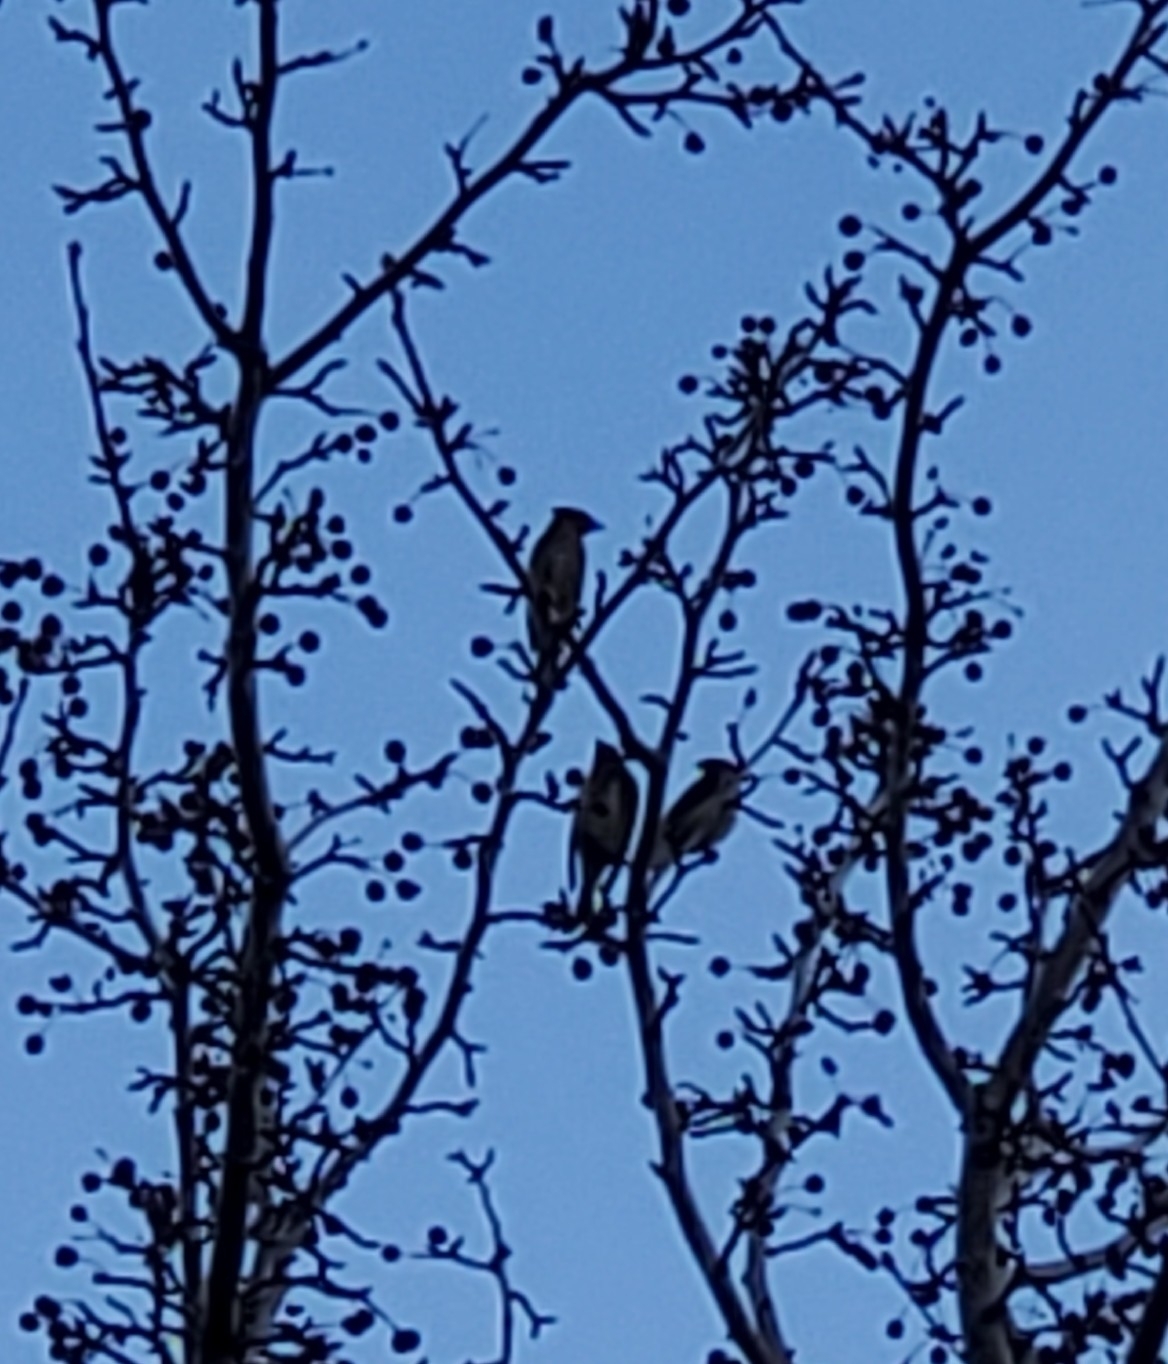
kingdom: Animalia
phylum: Chordata
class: Aves
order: Passeriformes
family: Bombycillidae
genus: Bombycilla
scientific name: Bombycilla cedrorum
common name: Cedar waxwing
